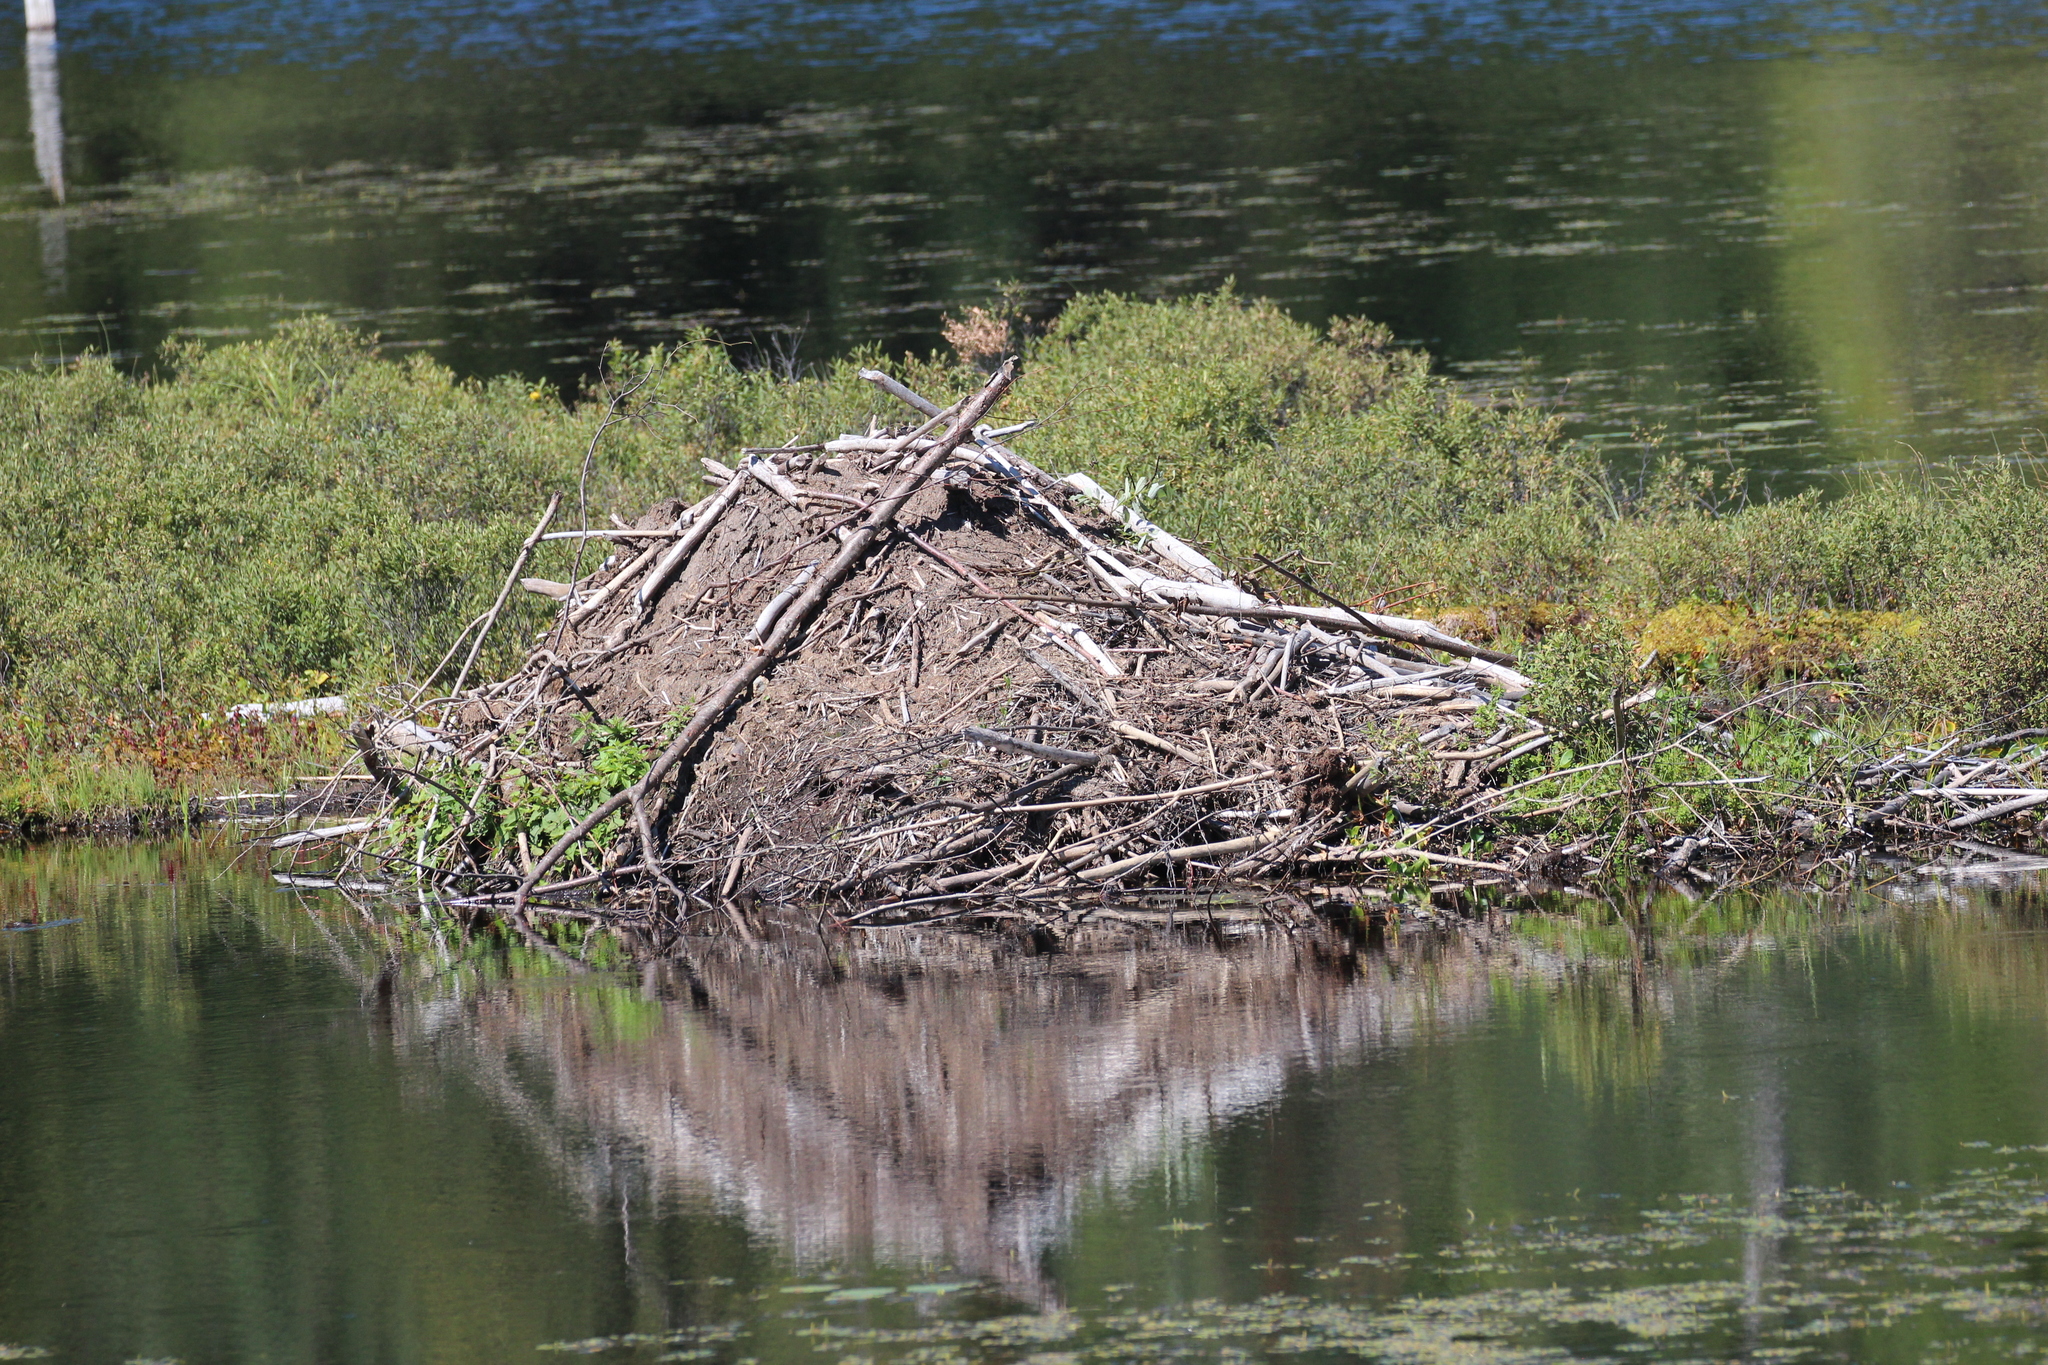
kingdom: Animalia
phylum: Chordata
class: Mammalia
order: Rodentia
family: Castoridae
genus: Castor
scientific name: Castor canadensis
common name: American beaver
